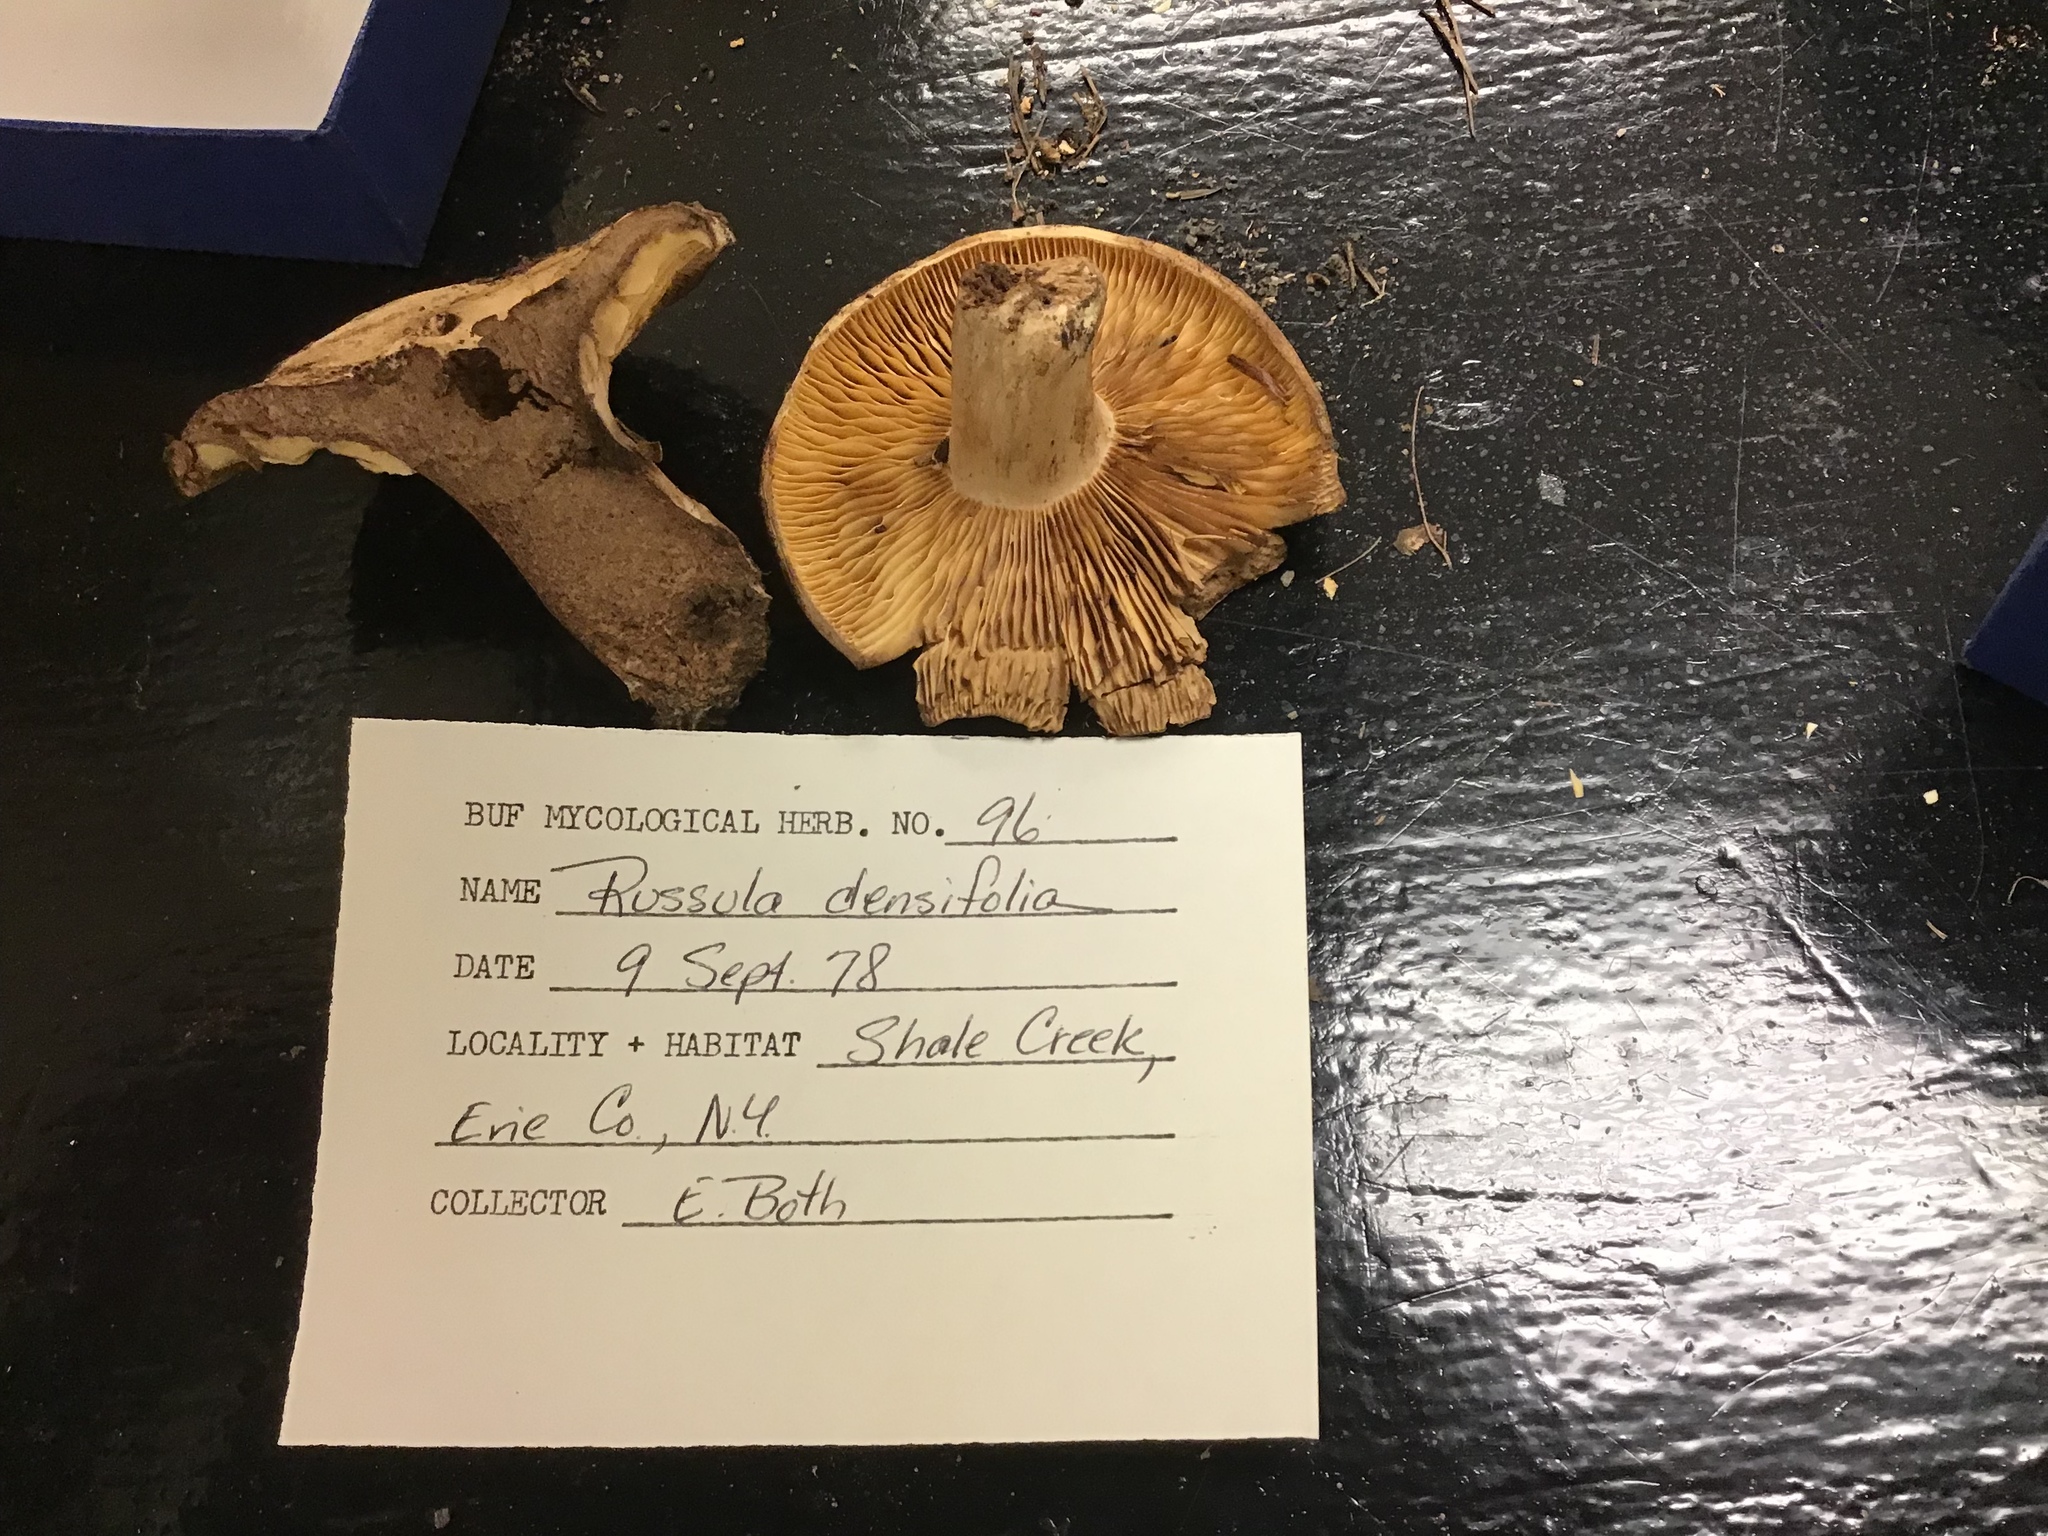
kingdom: Fungi
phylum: Basidiomycota
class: Agaricomycetes
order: Russulales
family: Russulaceae
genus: Russula
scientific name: Russula densifolia
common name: Crowded brittlegill
